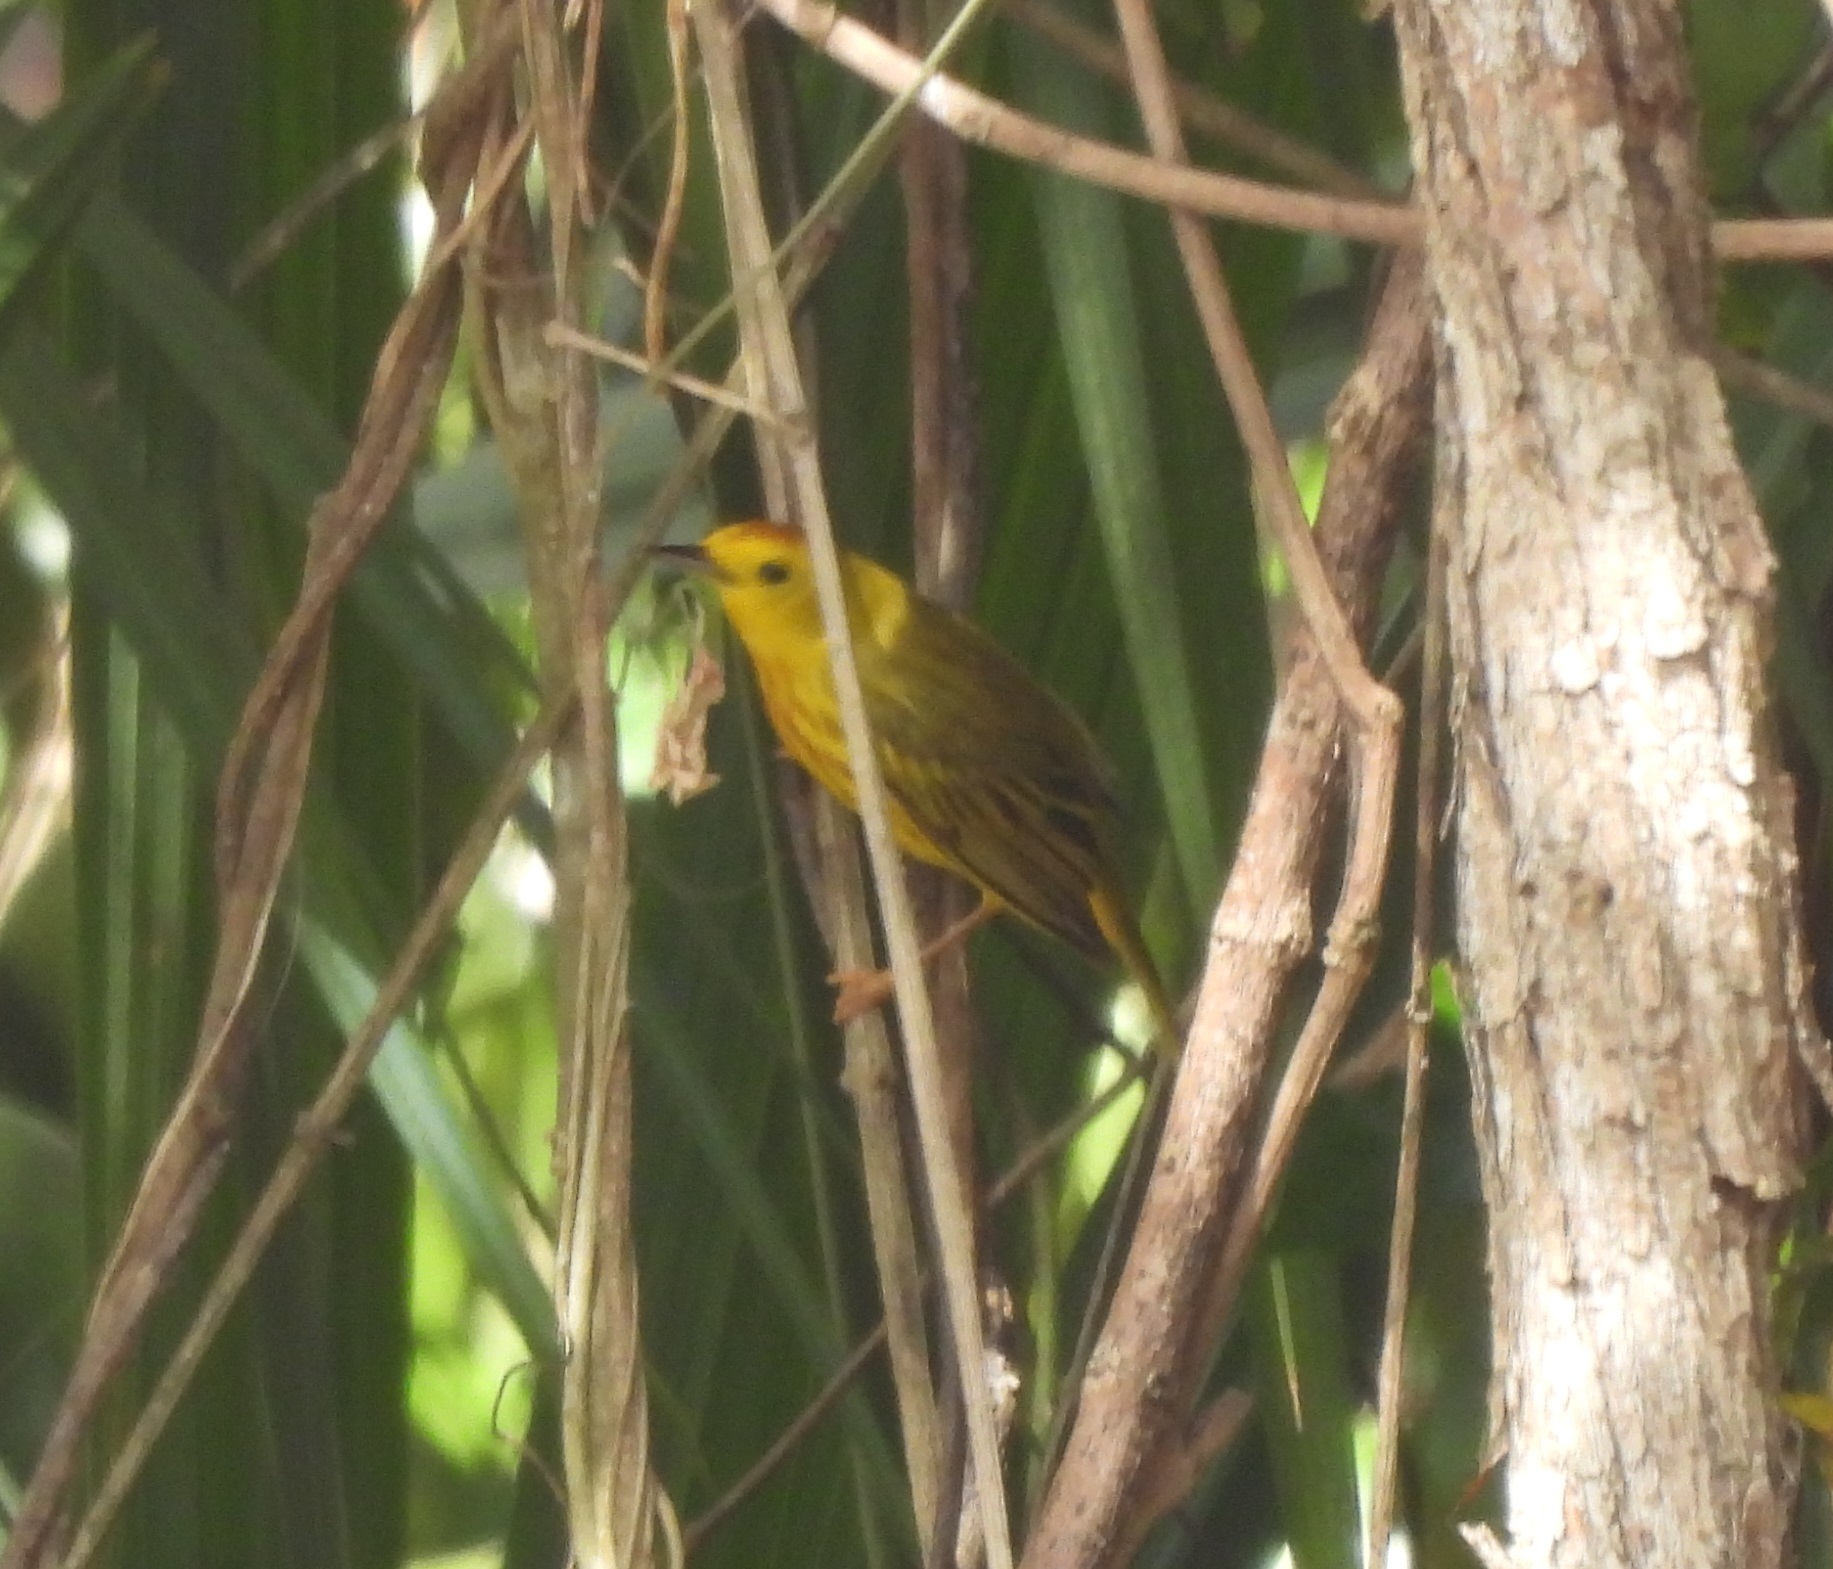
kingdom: Animalia
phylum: Chordata
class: Aves
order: Passeriformes
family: Parulidae
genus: Setophaga
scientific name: Setophaga petechia
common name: Yellow warbler
